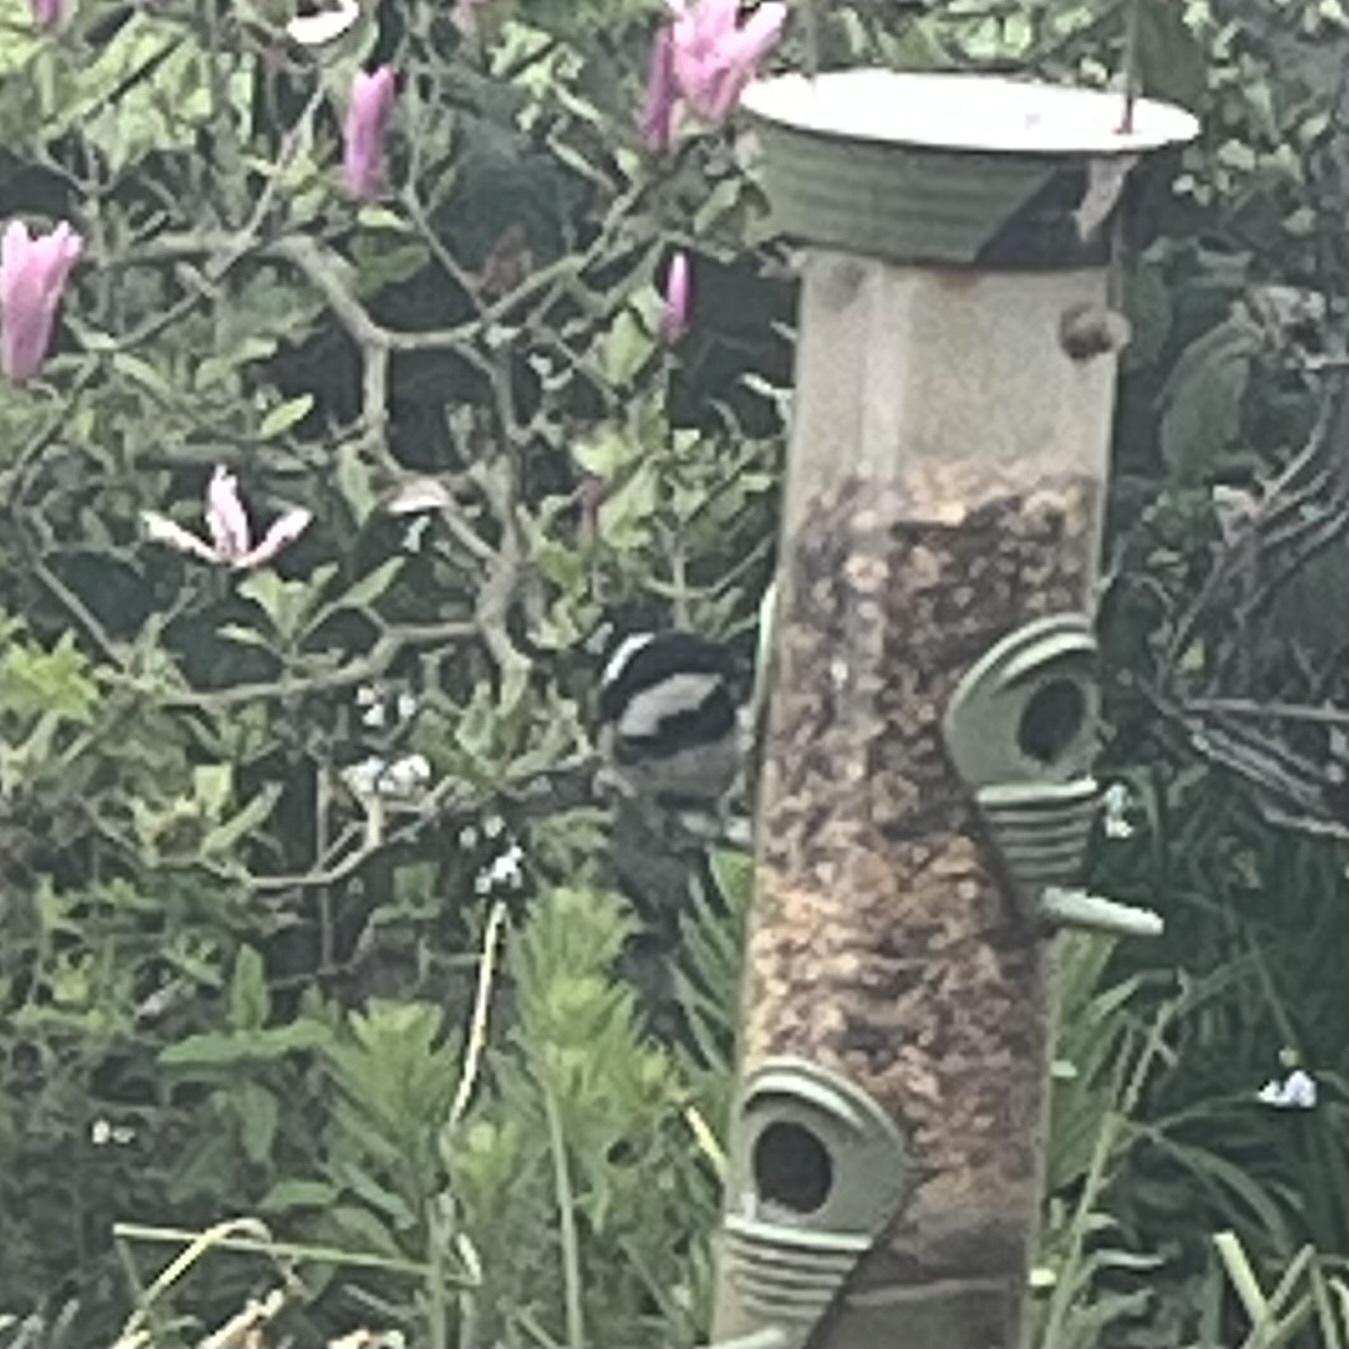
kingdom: Animalia
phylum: Chordata
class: Aves
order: Passeriformes
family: Paridae
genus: Periparus
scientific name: Periparus ater
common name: Coal tit
